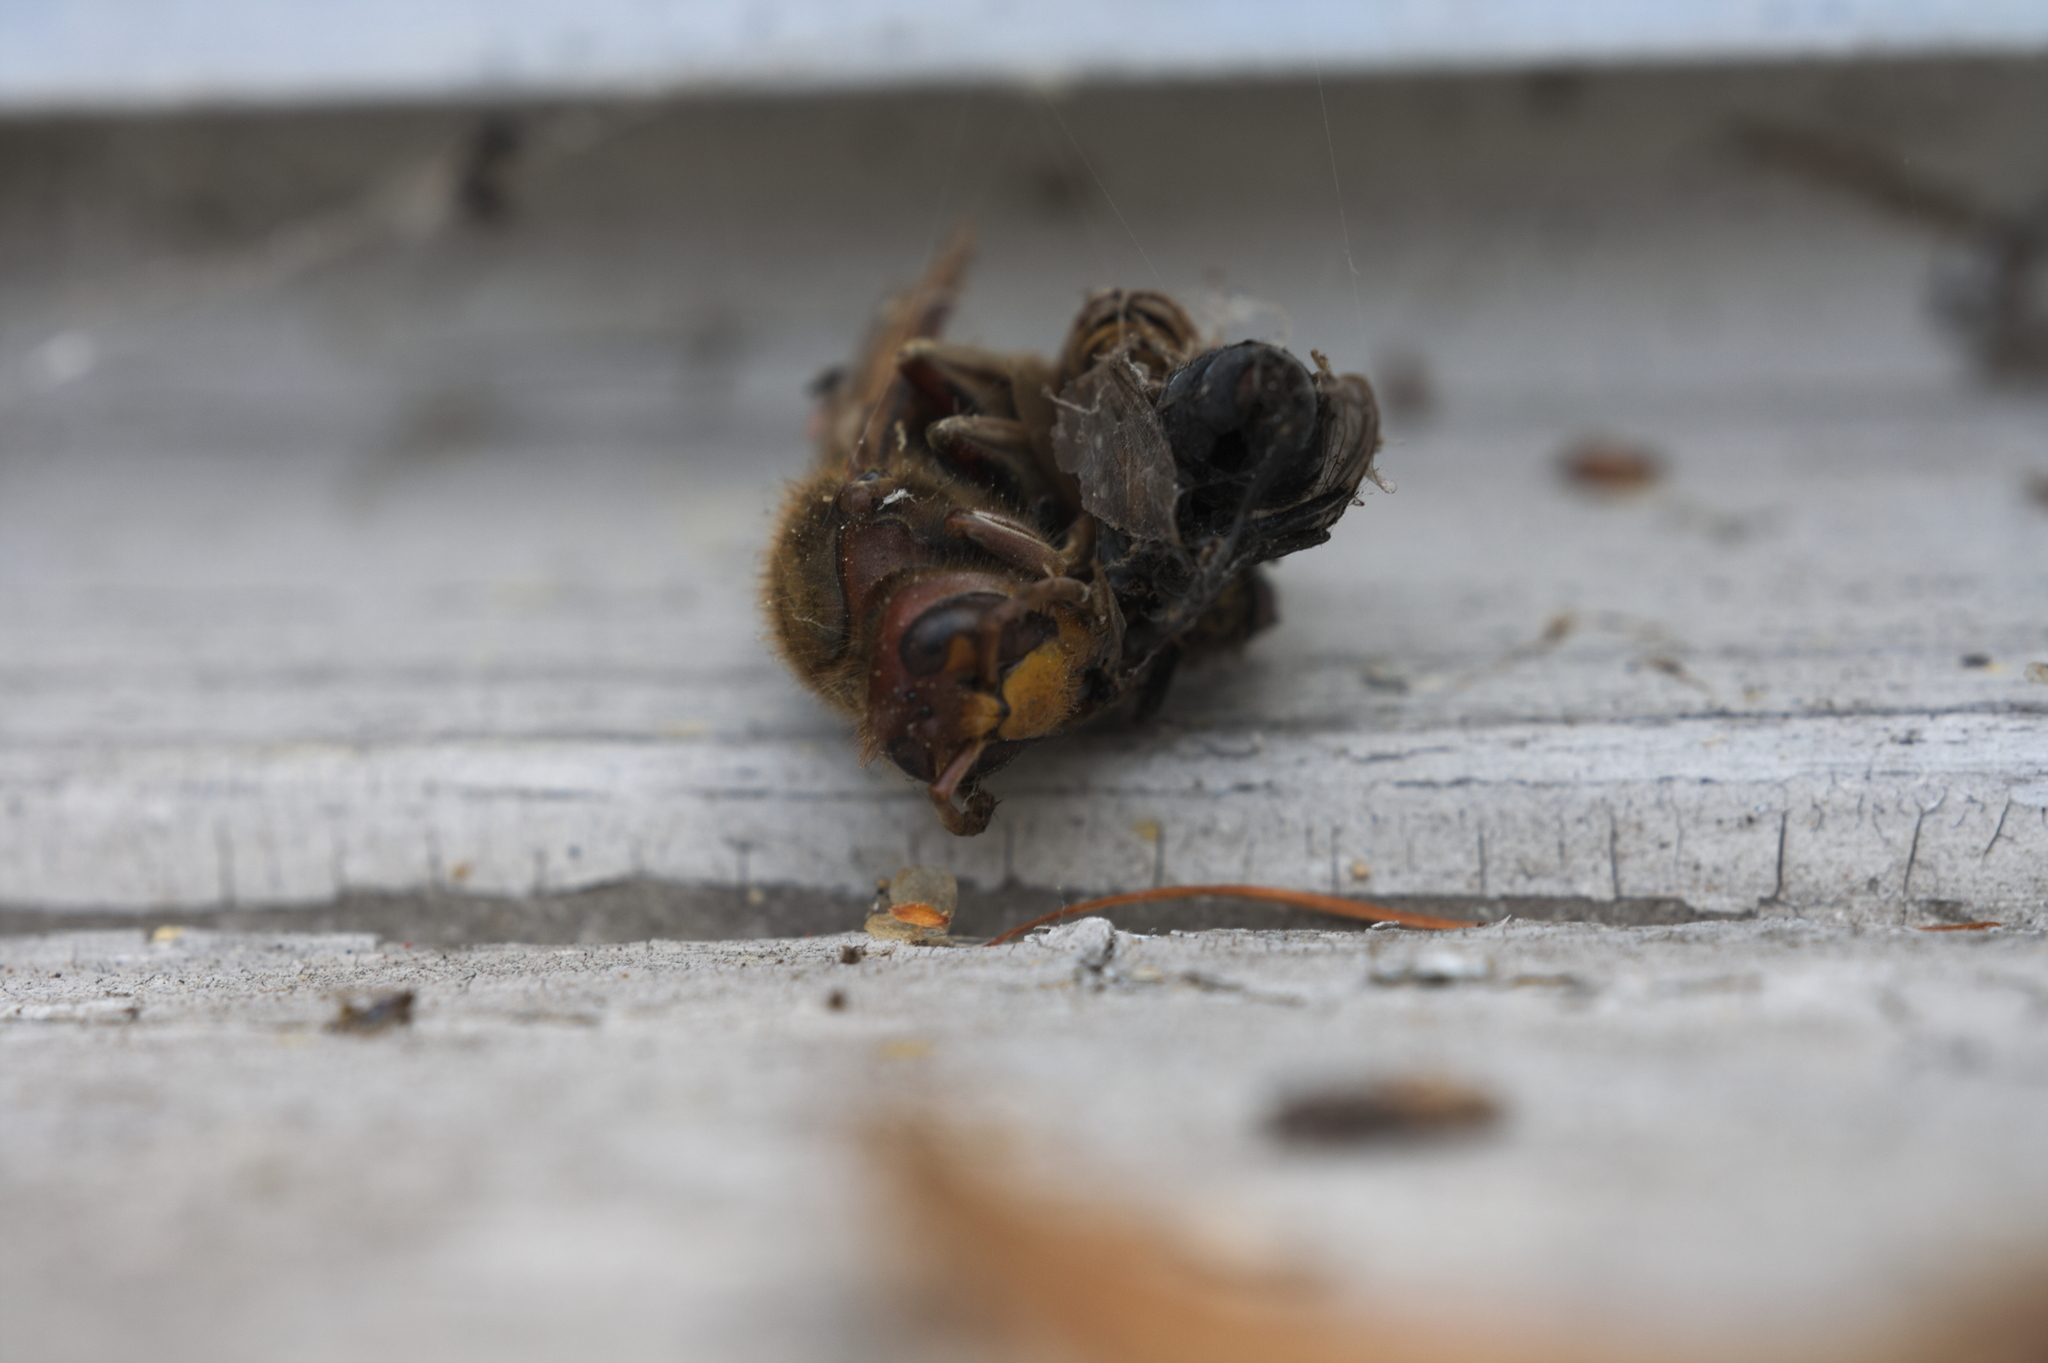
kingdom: Animalia
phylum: Arthropoda
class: Insecta
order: Hymenoptera
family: Vespidae
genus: Vespa
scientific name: Vespa crabro
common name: Hornet
